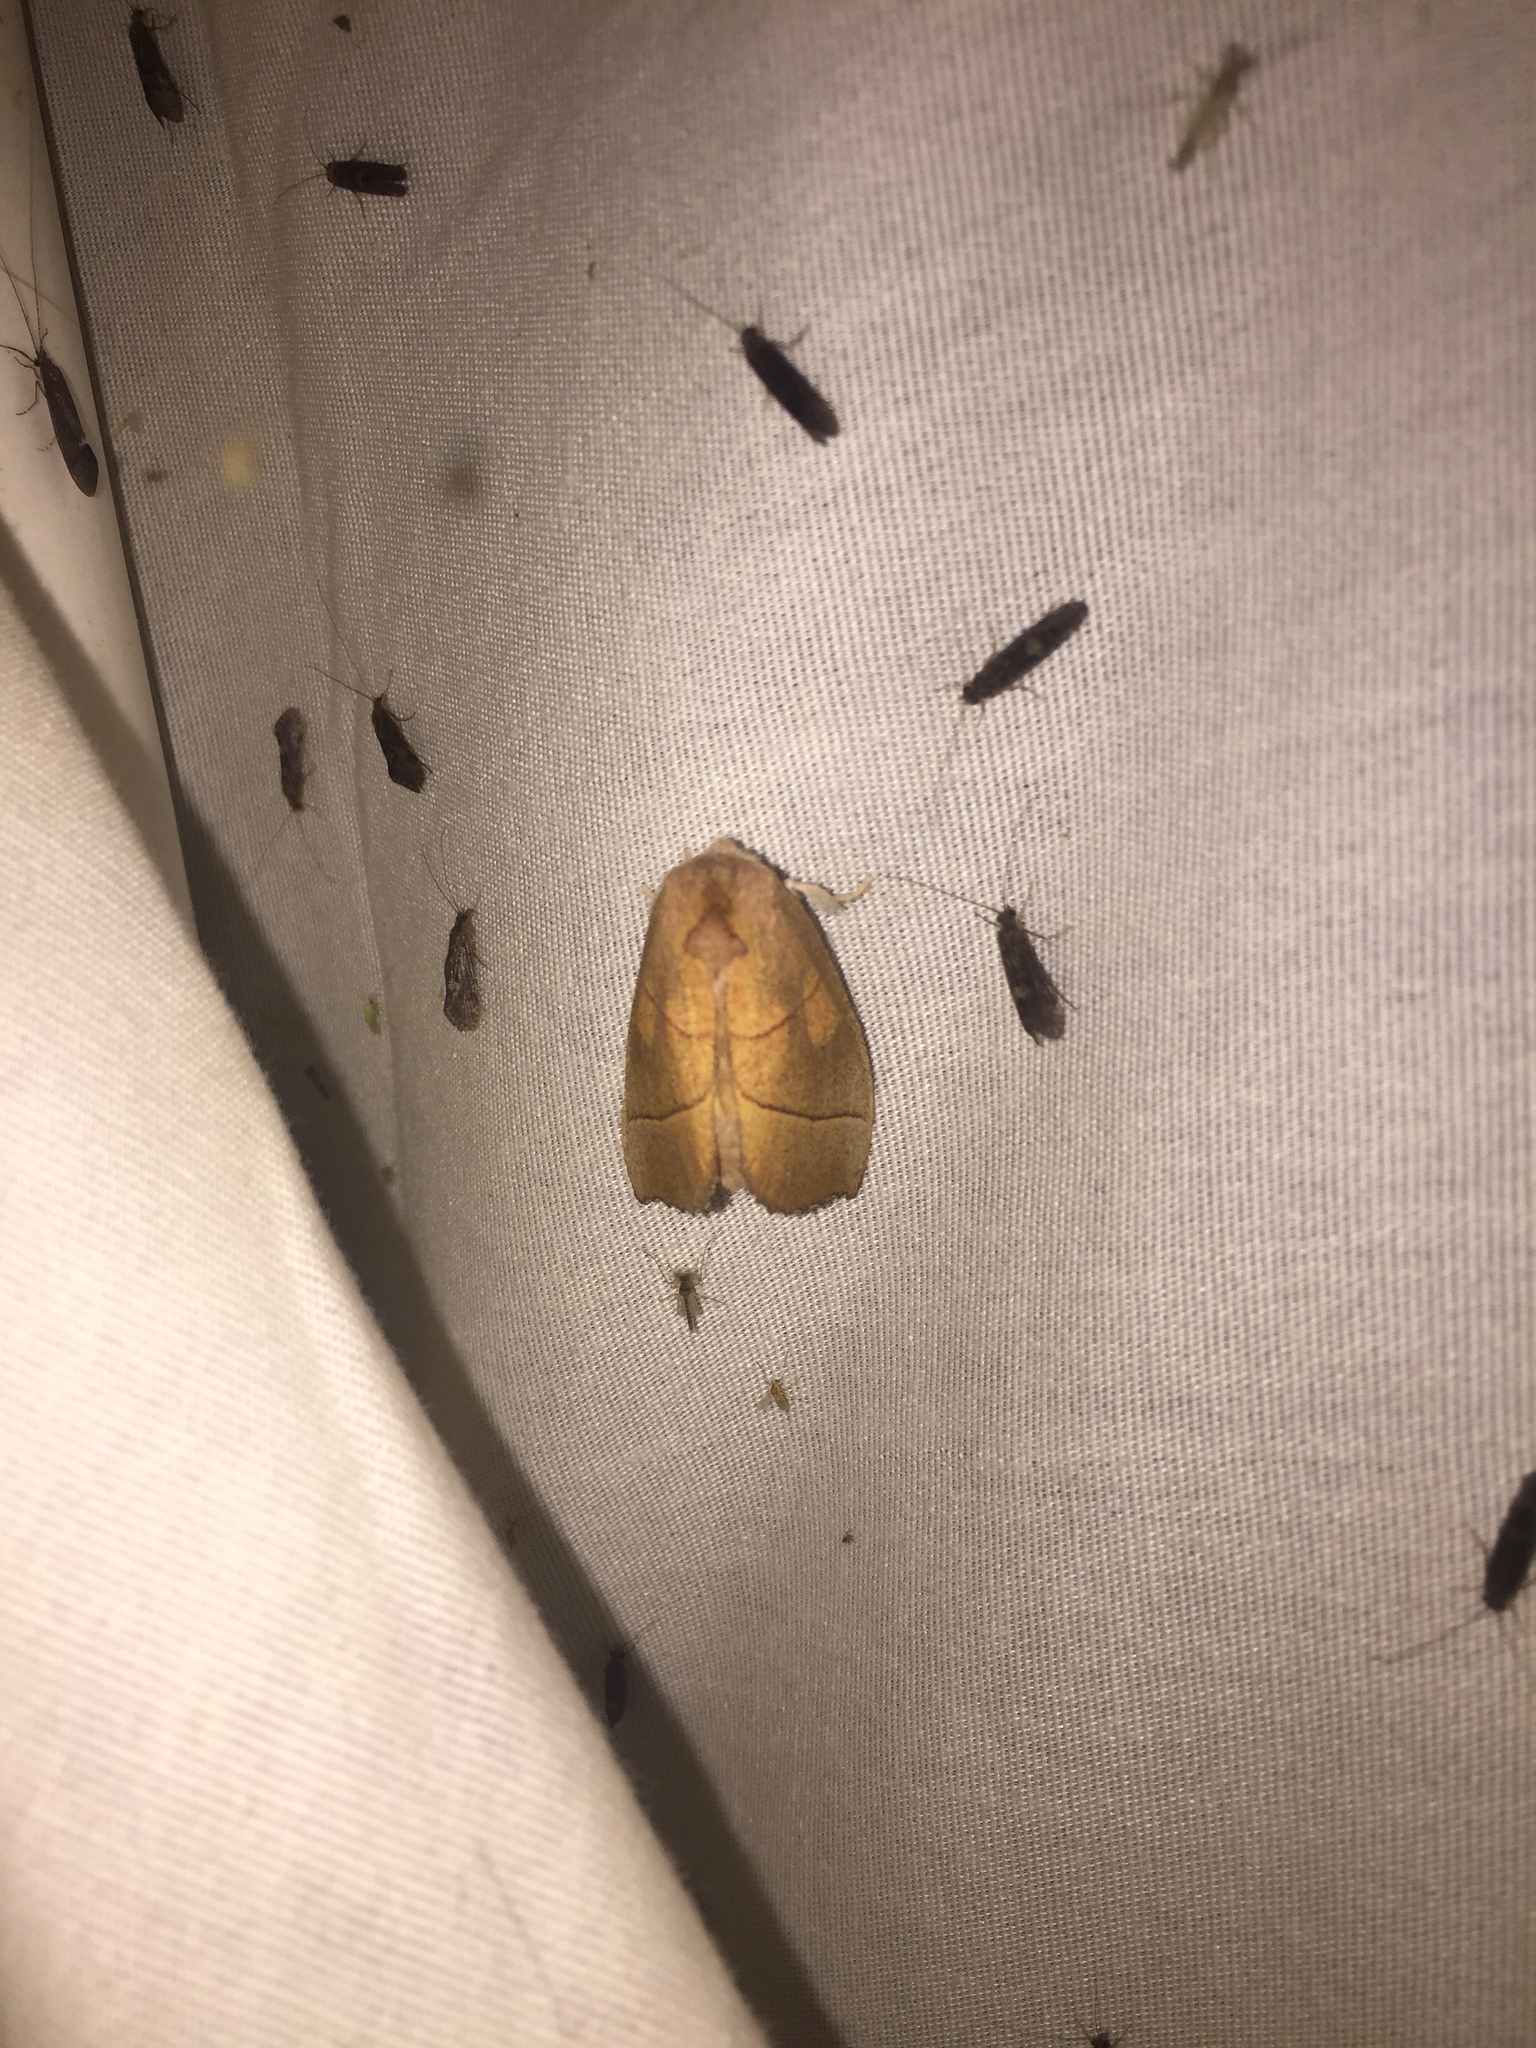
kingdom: Animalia
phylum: Arthropoda
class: Insecta
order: Lepidoptera
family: Notodontidae
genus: Nadata
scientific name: Nadata gibbosa
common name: White-dotted prominent
